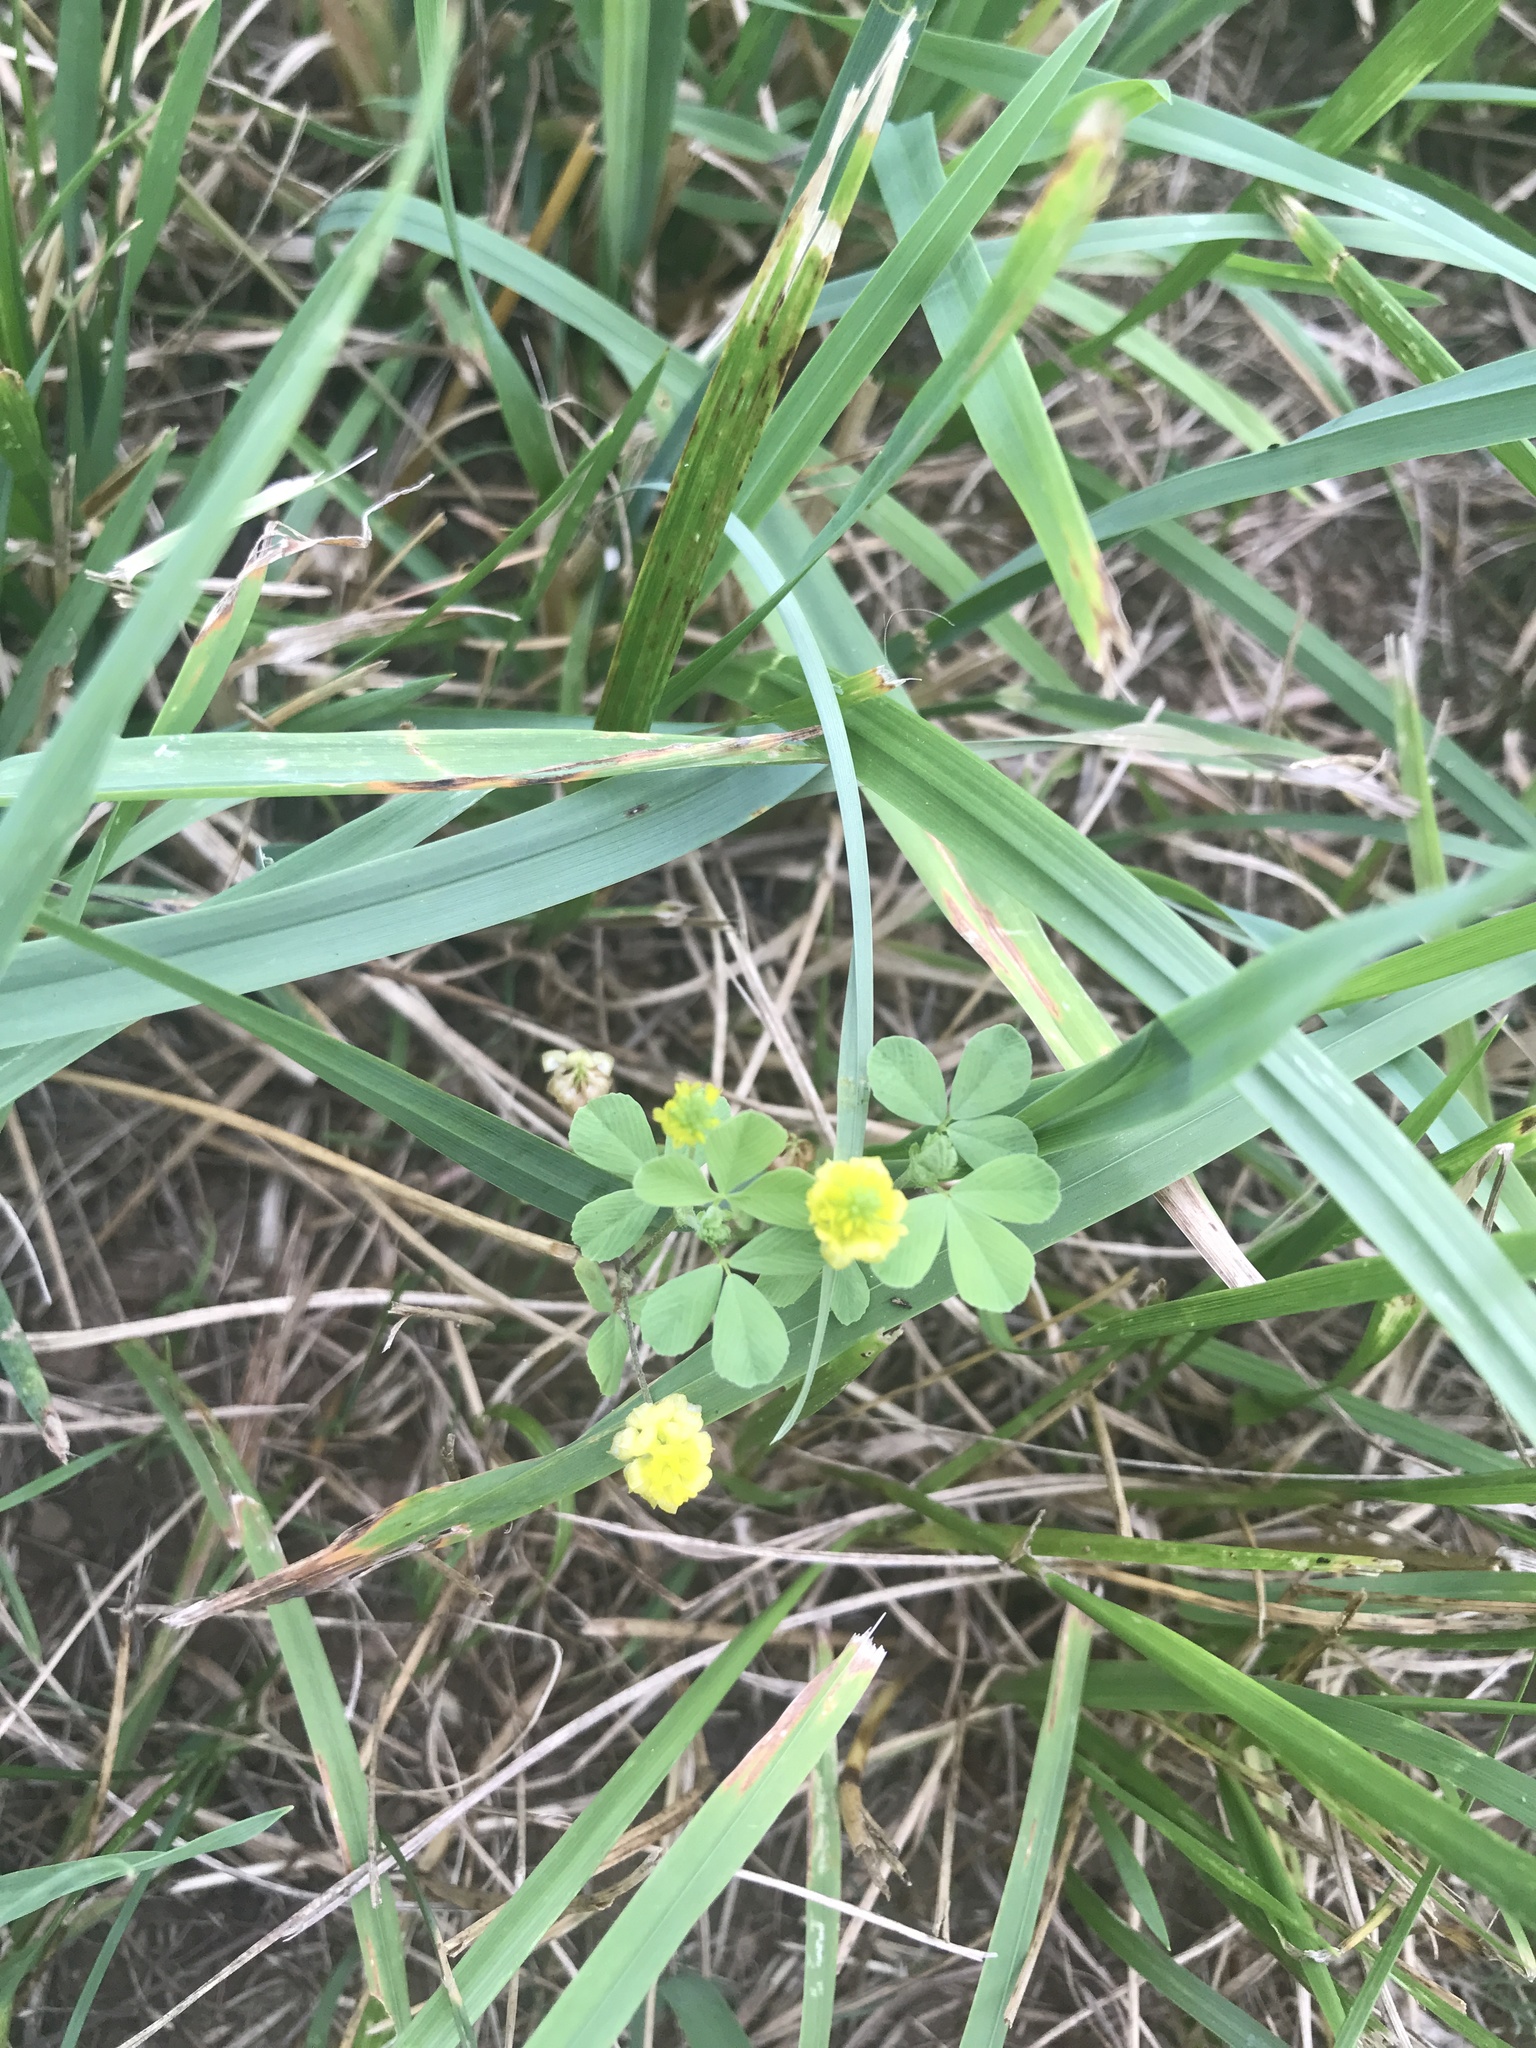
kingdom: Plantae
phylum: Tracheophyta
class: Magnoliopsida
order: Fabales
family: Fabaceae
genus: Trifolium
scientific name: Trifolium campestre
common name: Field clover
